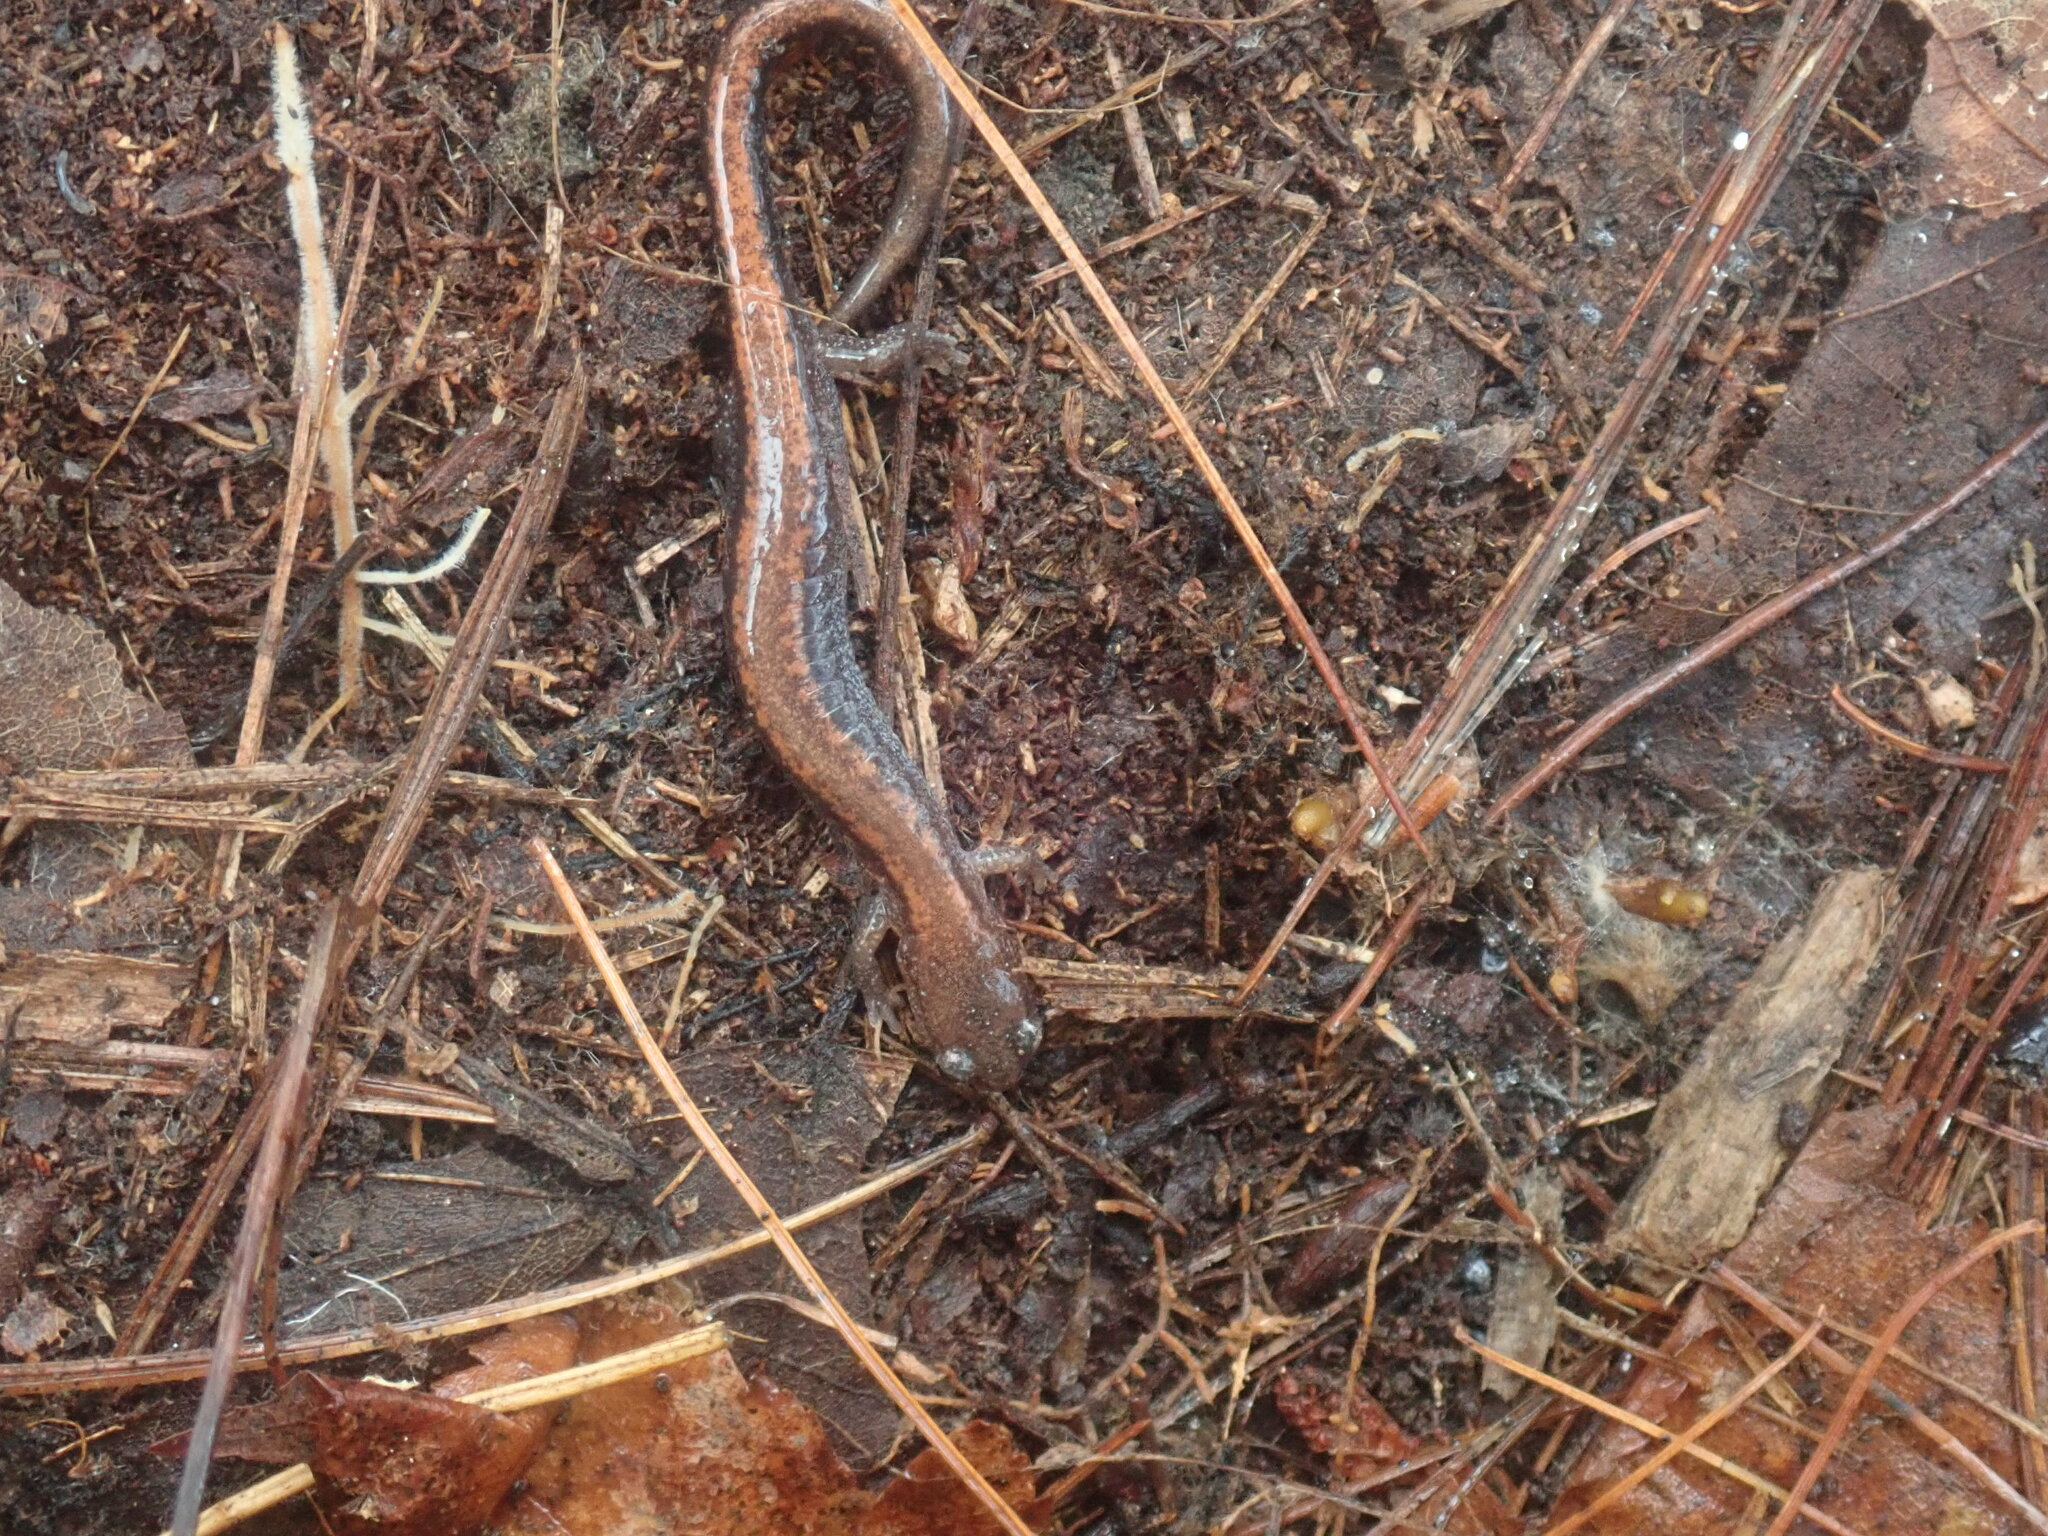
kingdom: Animalia
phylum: Chordata
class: Amphibia
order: Caudata
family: Plethodontidae
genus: Plethodon
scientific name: Plethodon cinereus
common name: Redback salamander
